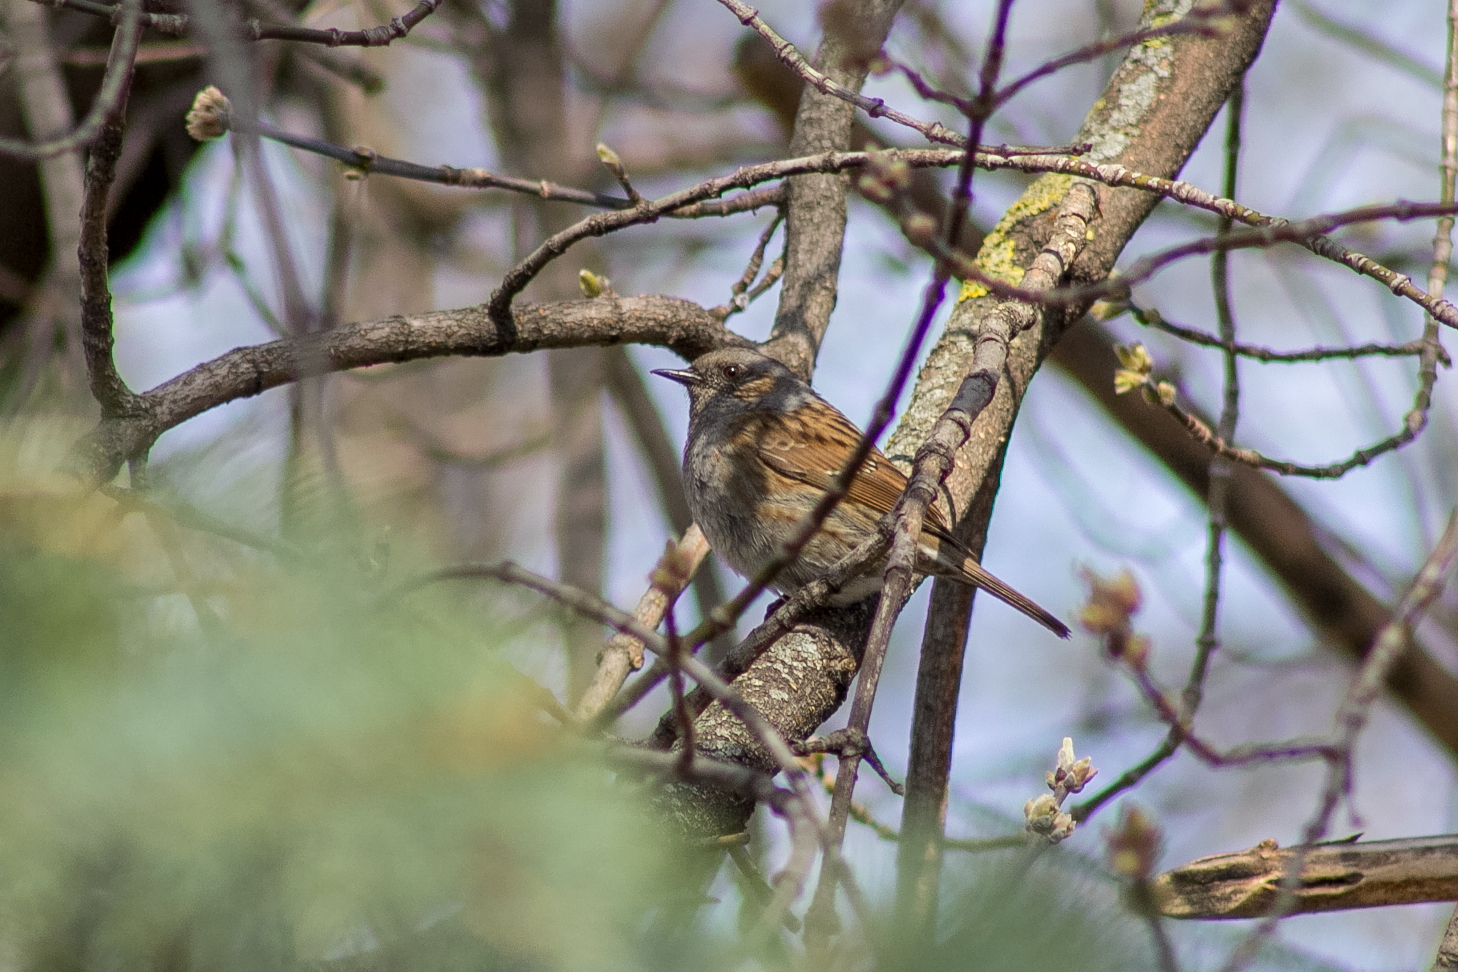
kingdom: Animalia
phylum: Chordata
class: Aves
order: Passeriformes
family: Prunellidae
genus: Prunella
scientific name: Prunella modularis
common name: Dunnock
